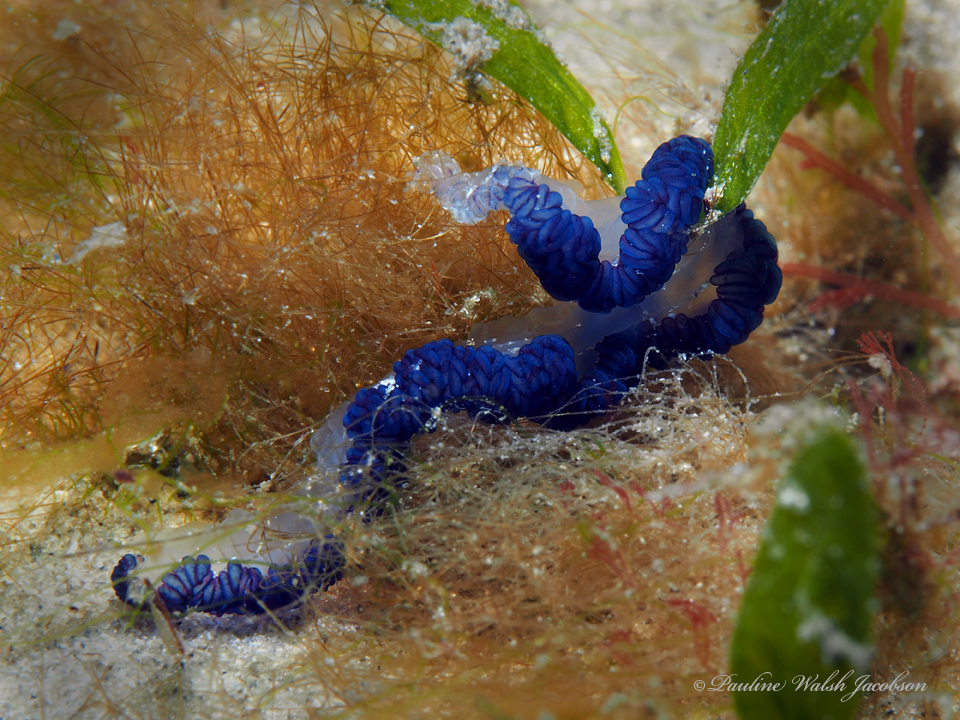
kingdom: Animalia
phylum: Cnidaria
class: Hydrozoa
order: Siphonophorae
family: Physaliidae
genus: Physalia
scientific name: Physalia physalis
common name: Portuguese man-of-war
